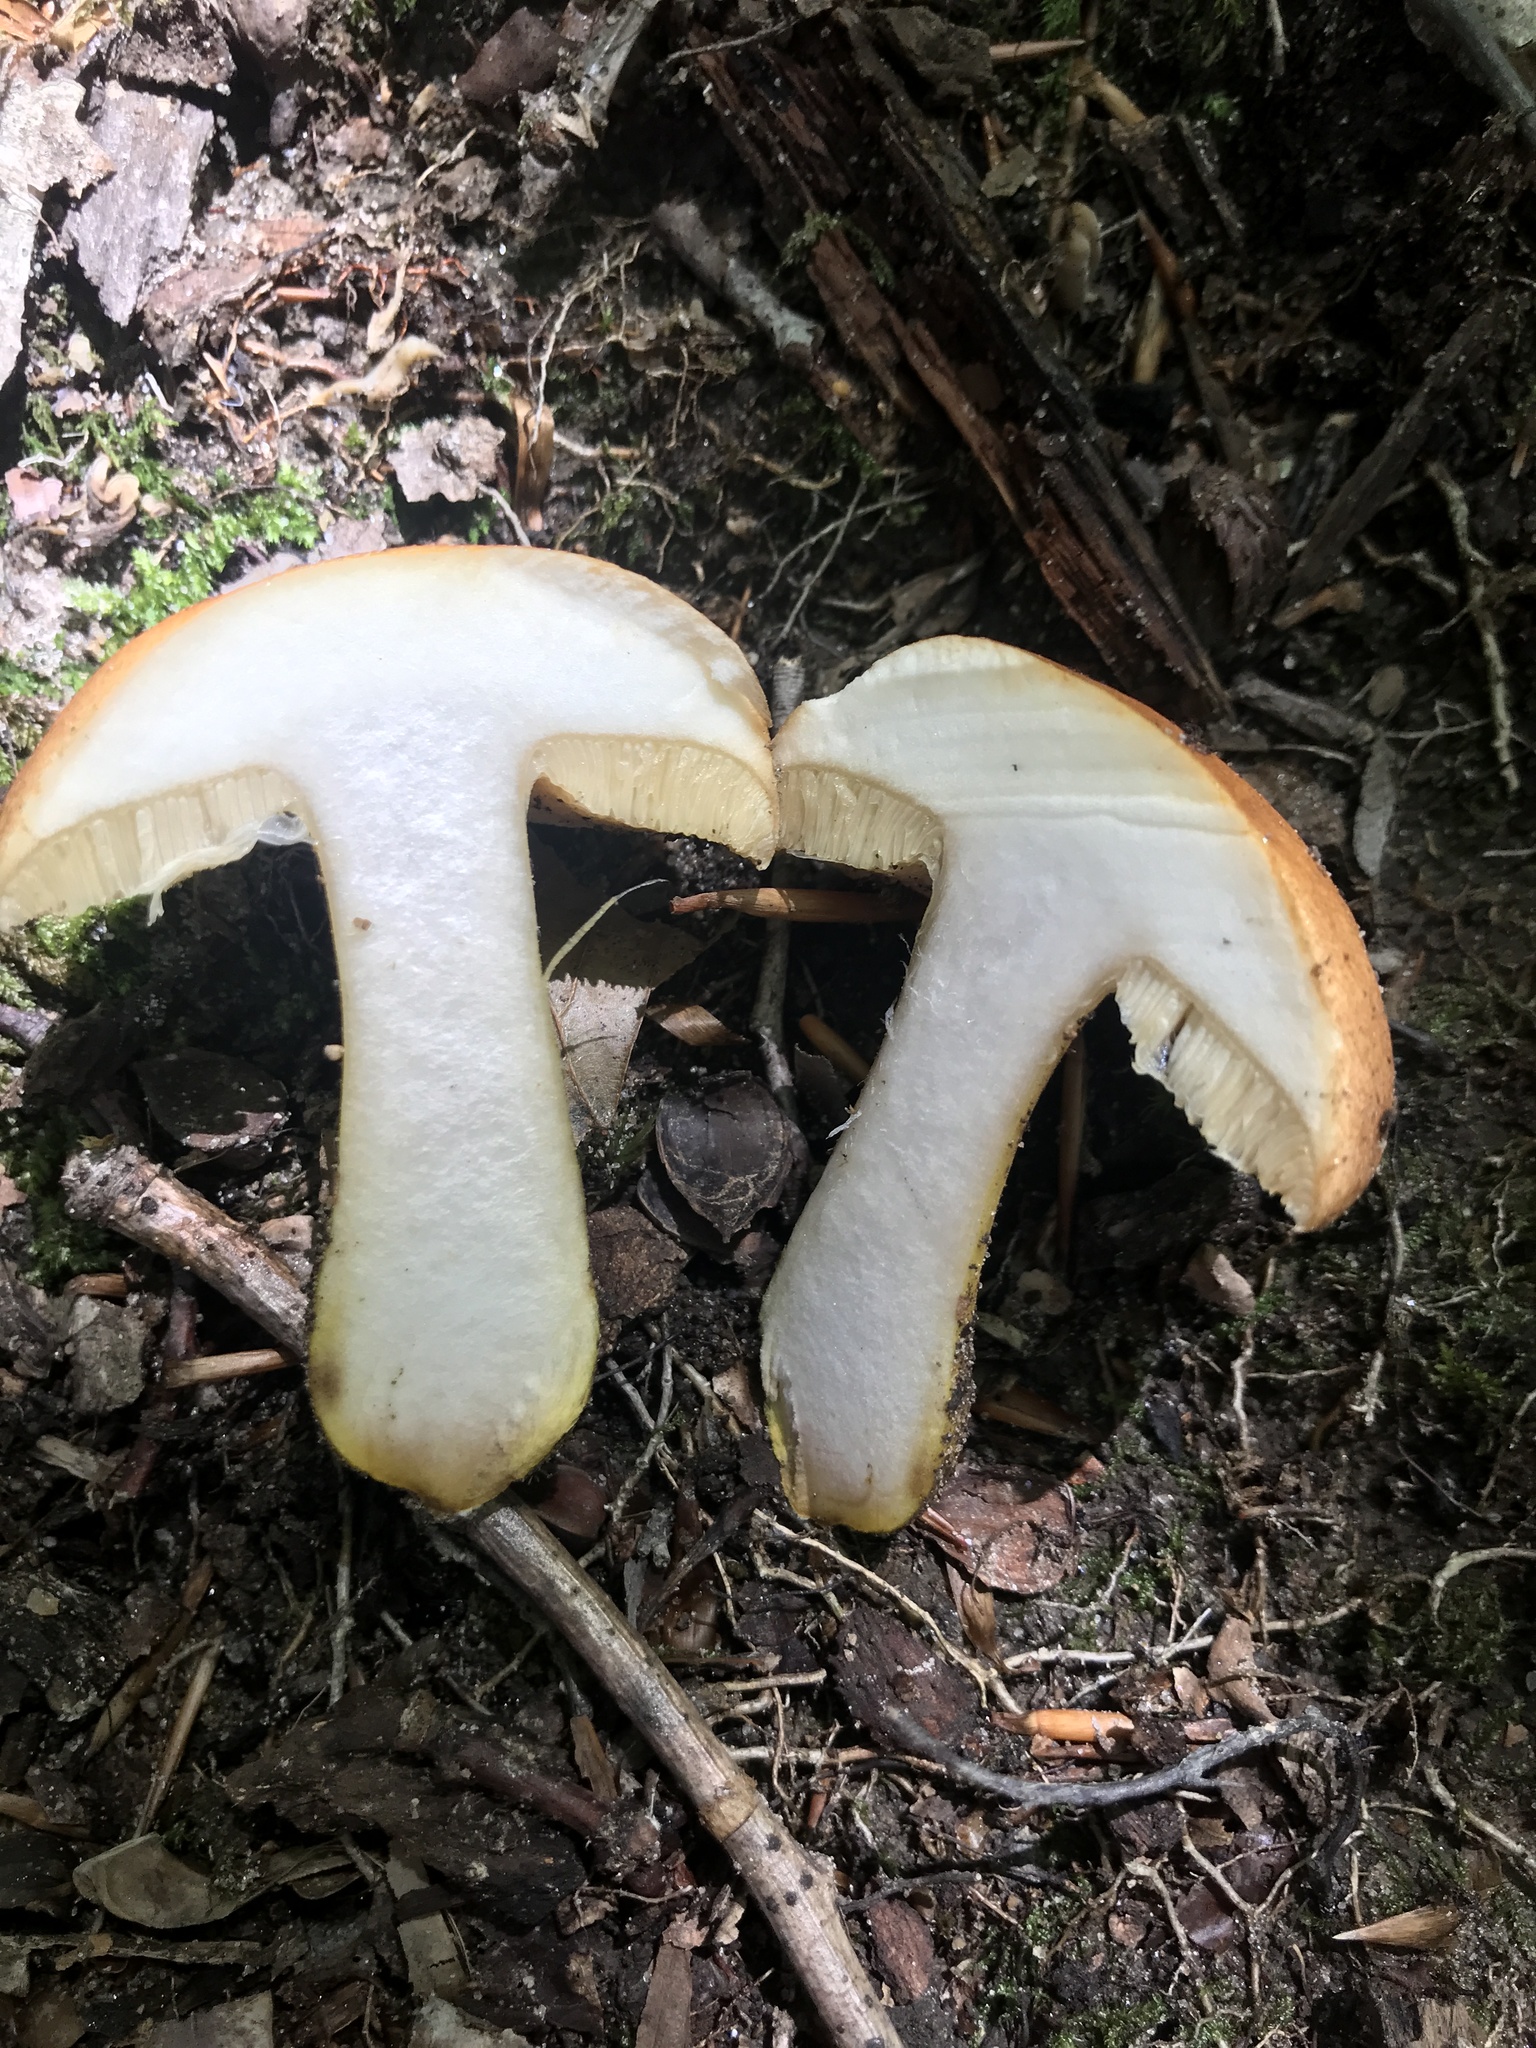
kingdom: Fungi
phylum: Basidiomycota
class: Agaricomycetes
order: Boletales
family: Boletaceae
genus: Aureoboletus
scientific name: Aureoboletus roxanae
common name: Roxane's bolete
